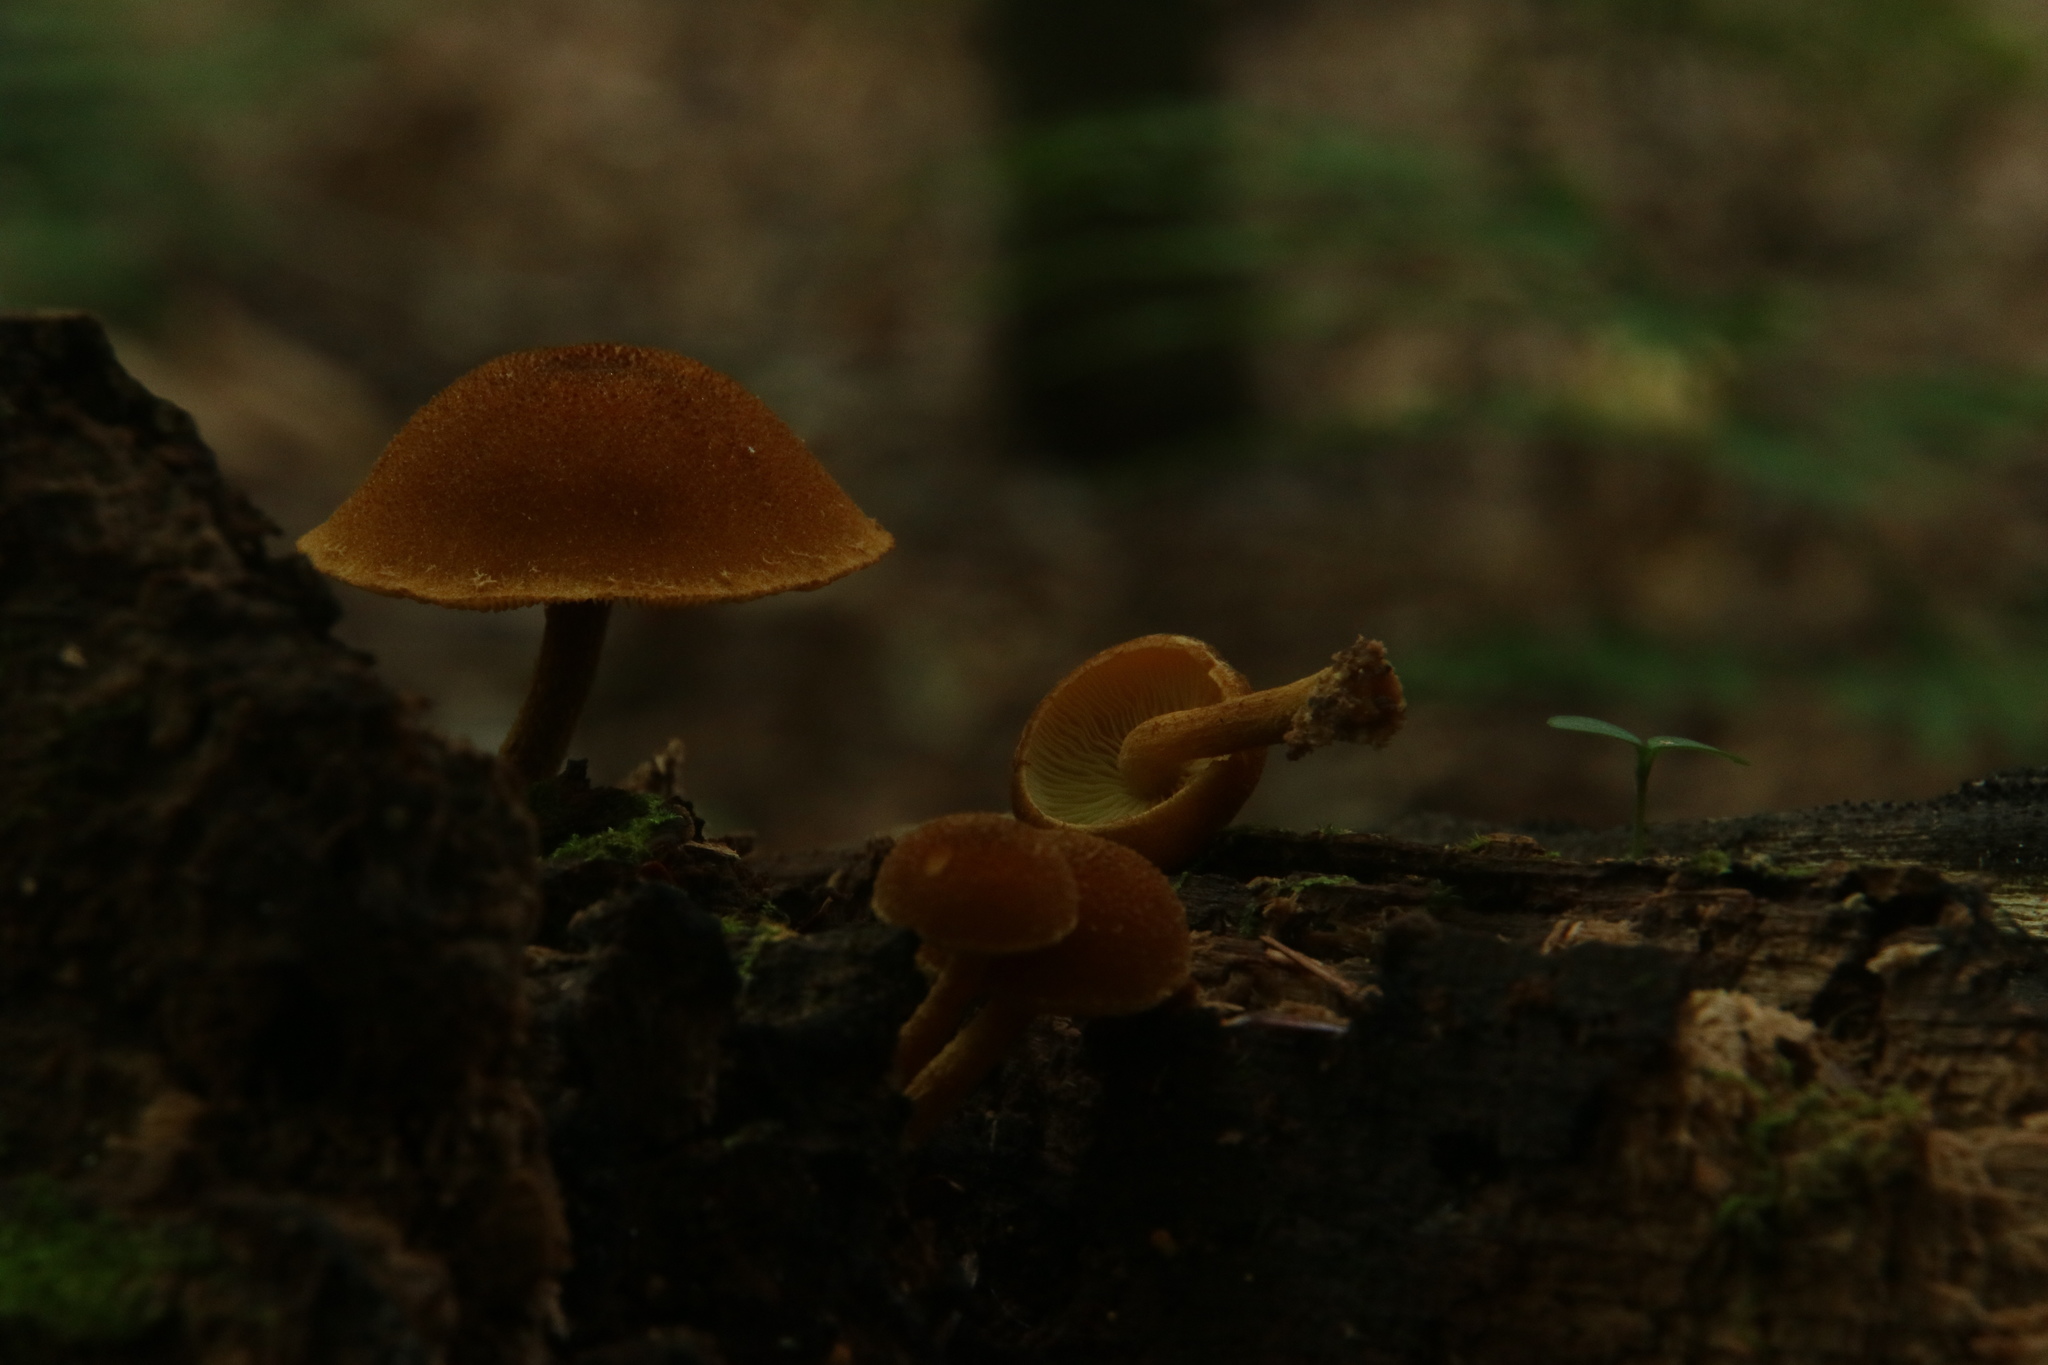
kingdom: Fungi
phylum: Basidiomycota
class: Agaricomycetes
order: Agaricales
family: Strophariaceae
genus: Pholiota
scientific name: Pholiota granulosa
